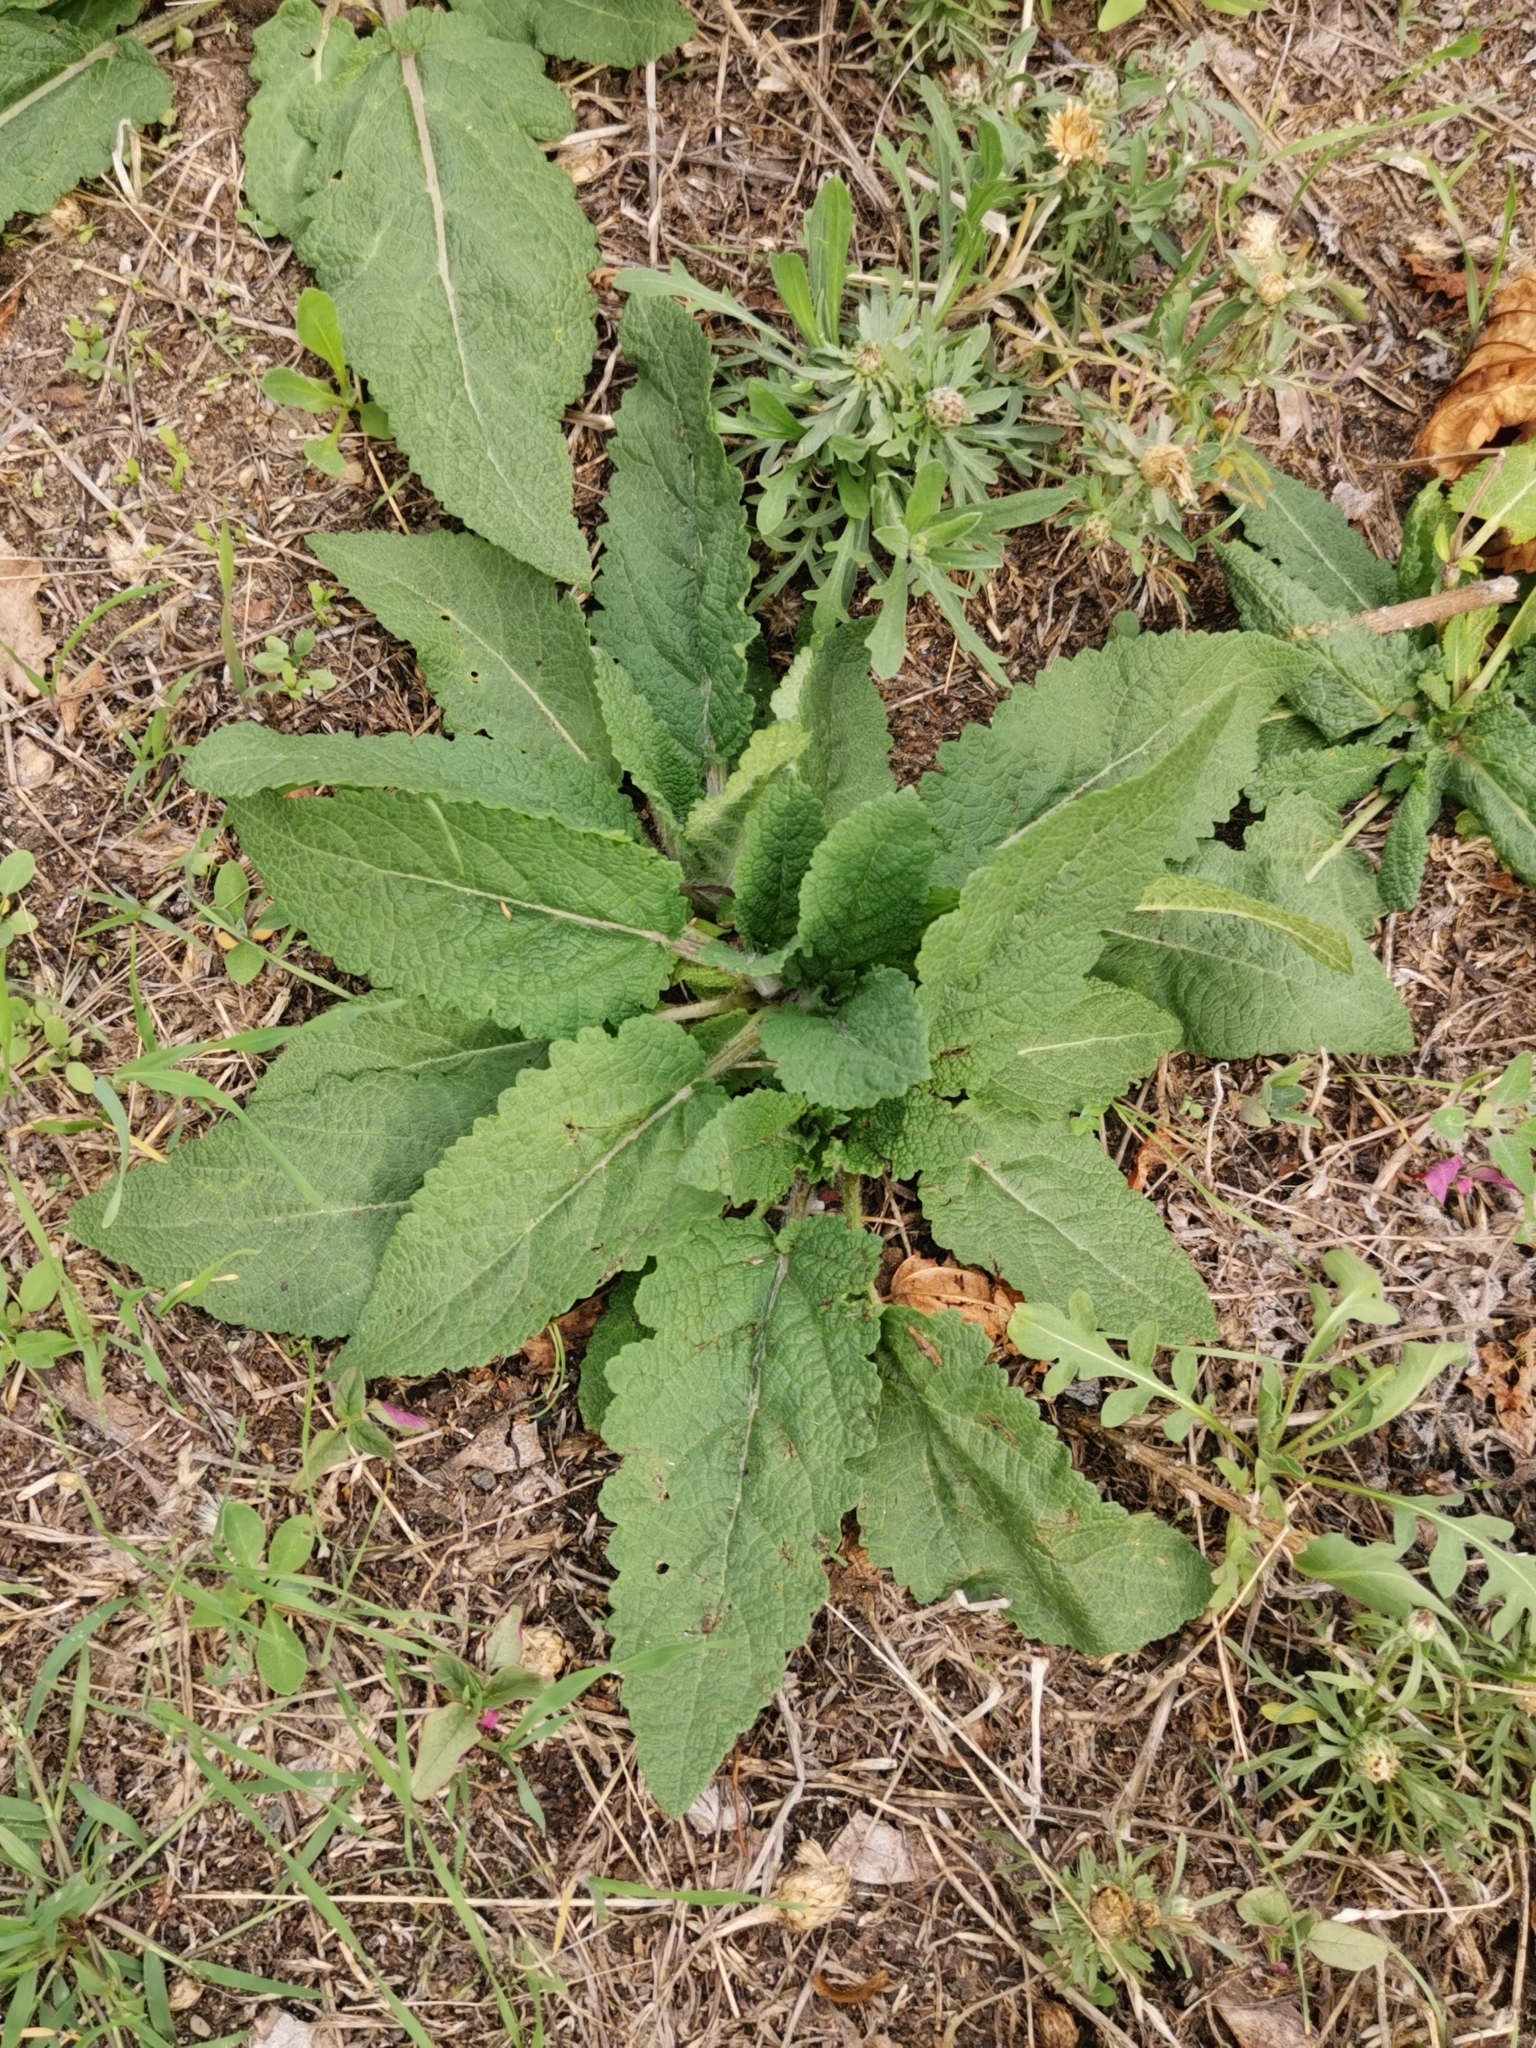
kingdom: Plantae
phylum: Tracheophyta
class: Magnoliopsida
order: Lamiales
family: Lamiaceae
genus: Salvia
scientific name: Salvia pratensis
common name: Meadow sage
